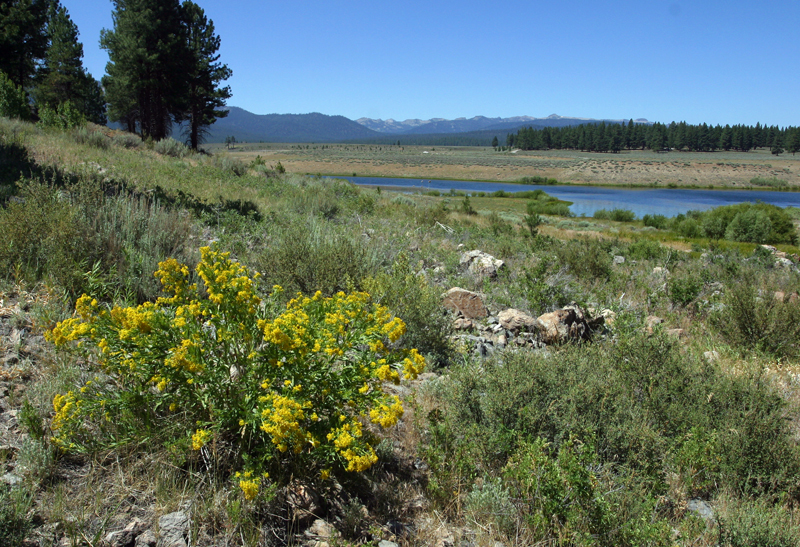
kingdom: Plantae
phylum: Tracheophyta
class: Magnoliopsida
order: Asterales
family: Asteraceae
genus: Senecio
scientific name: Senecio serra
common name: Tall ragwort
